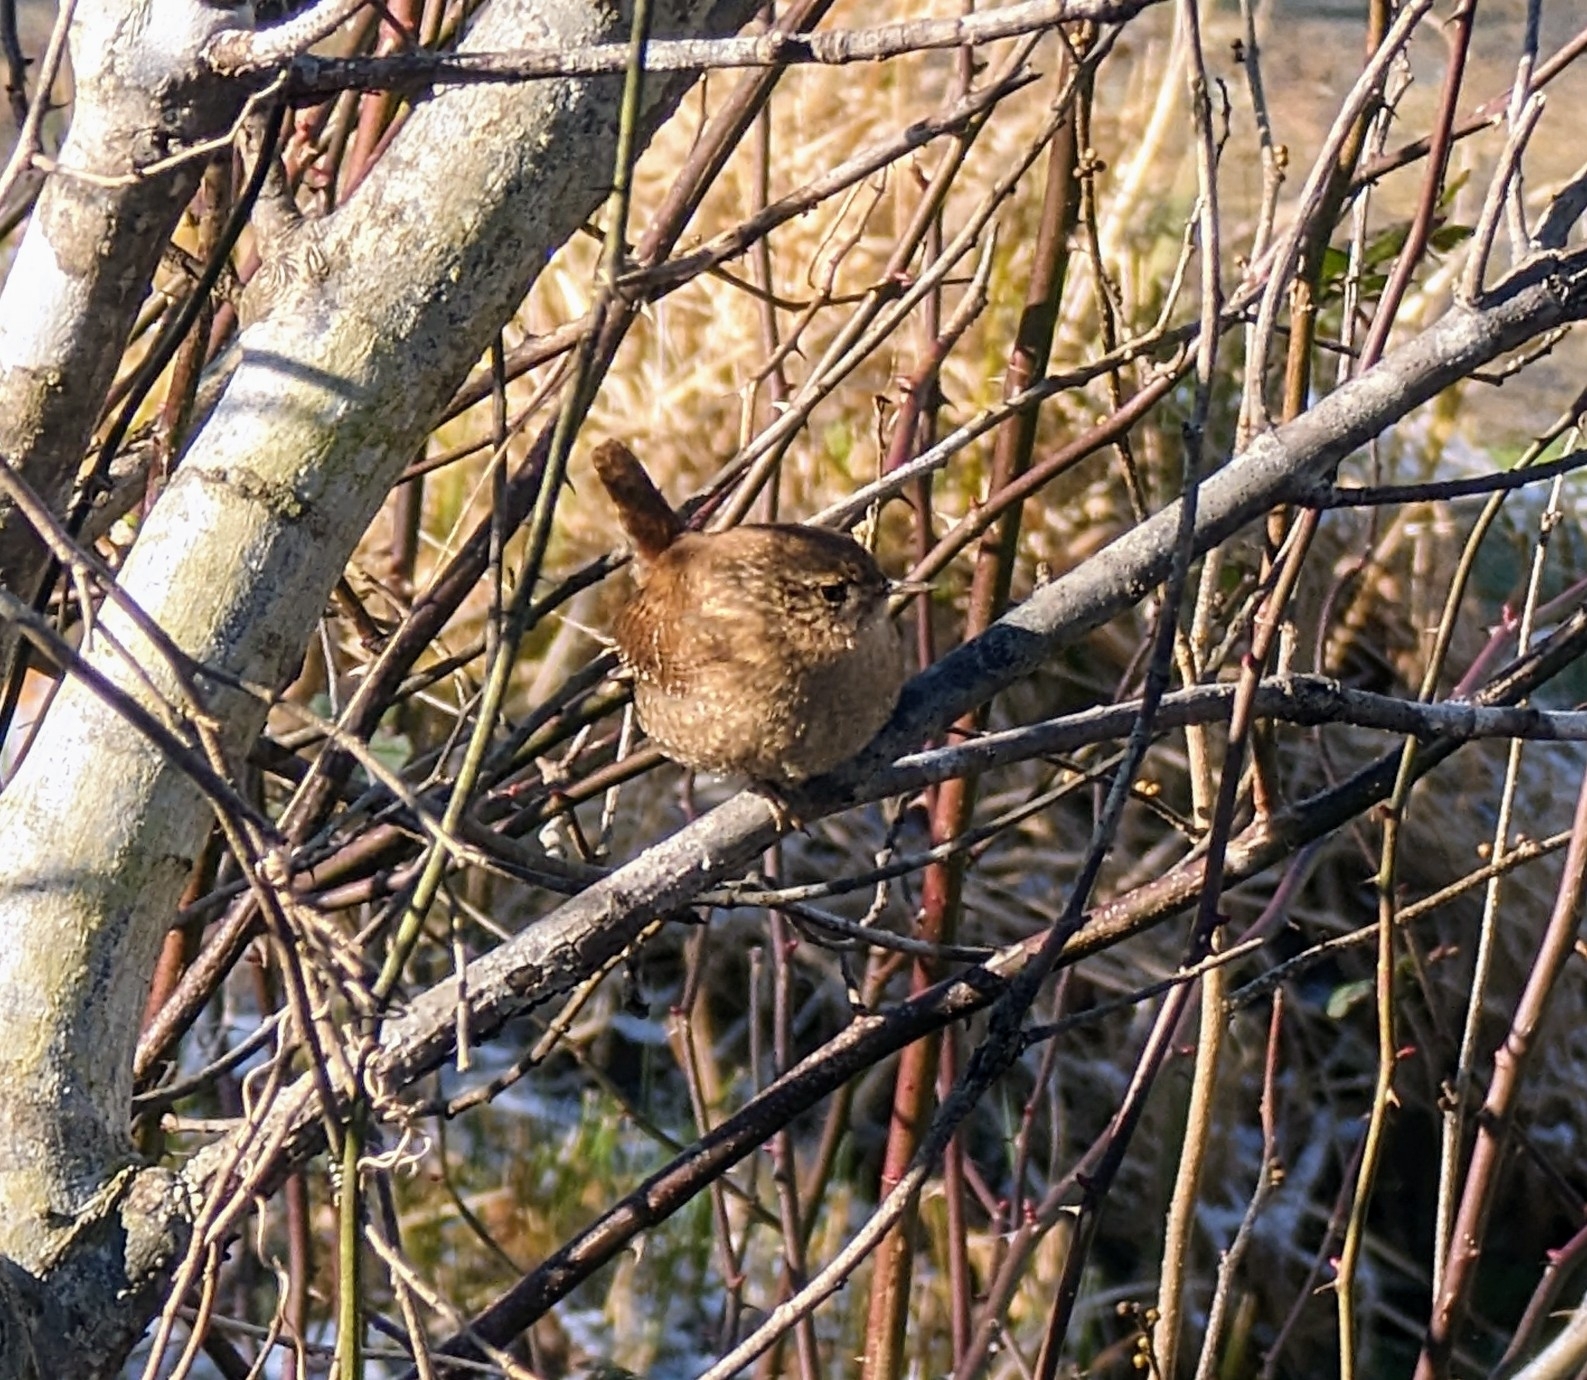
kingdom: Animalia
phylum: Chordata
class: Aves
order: Passeriformes
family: Troglodytidae
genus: Troglodytes
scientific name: Troglodytes hiemalis
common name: Winter wren
